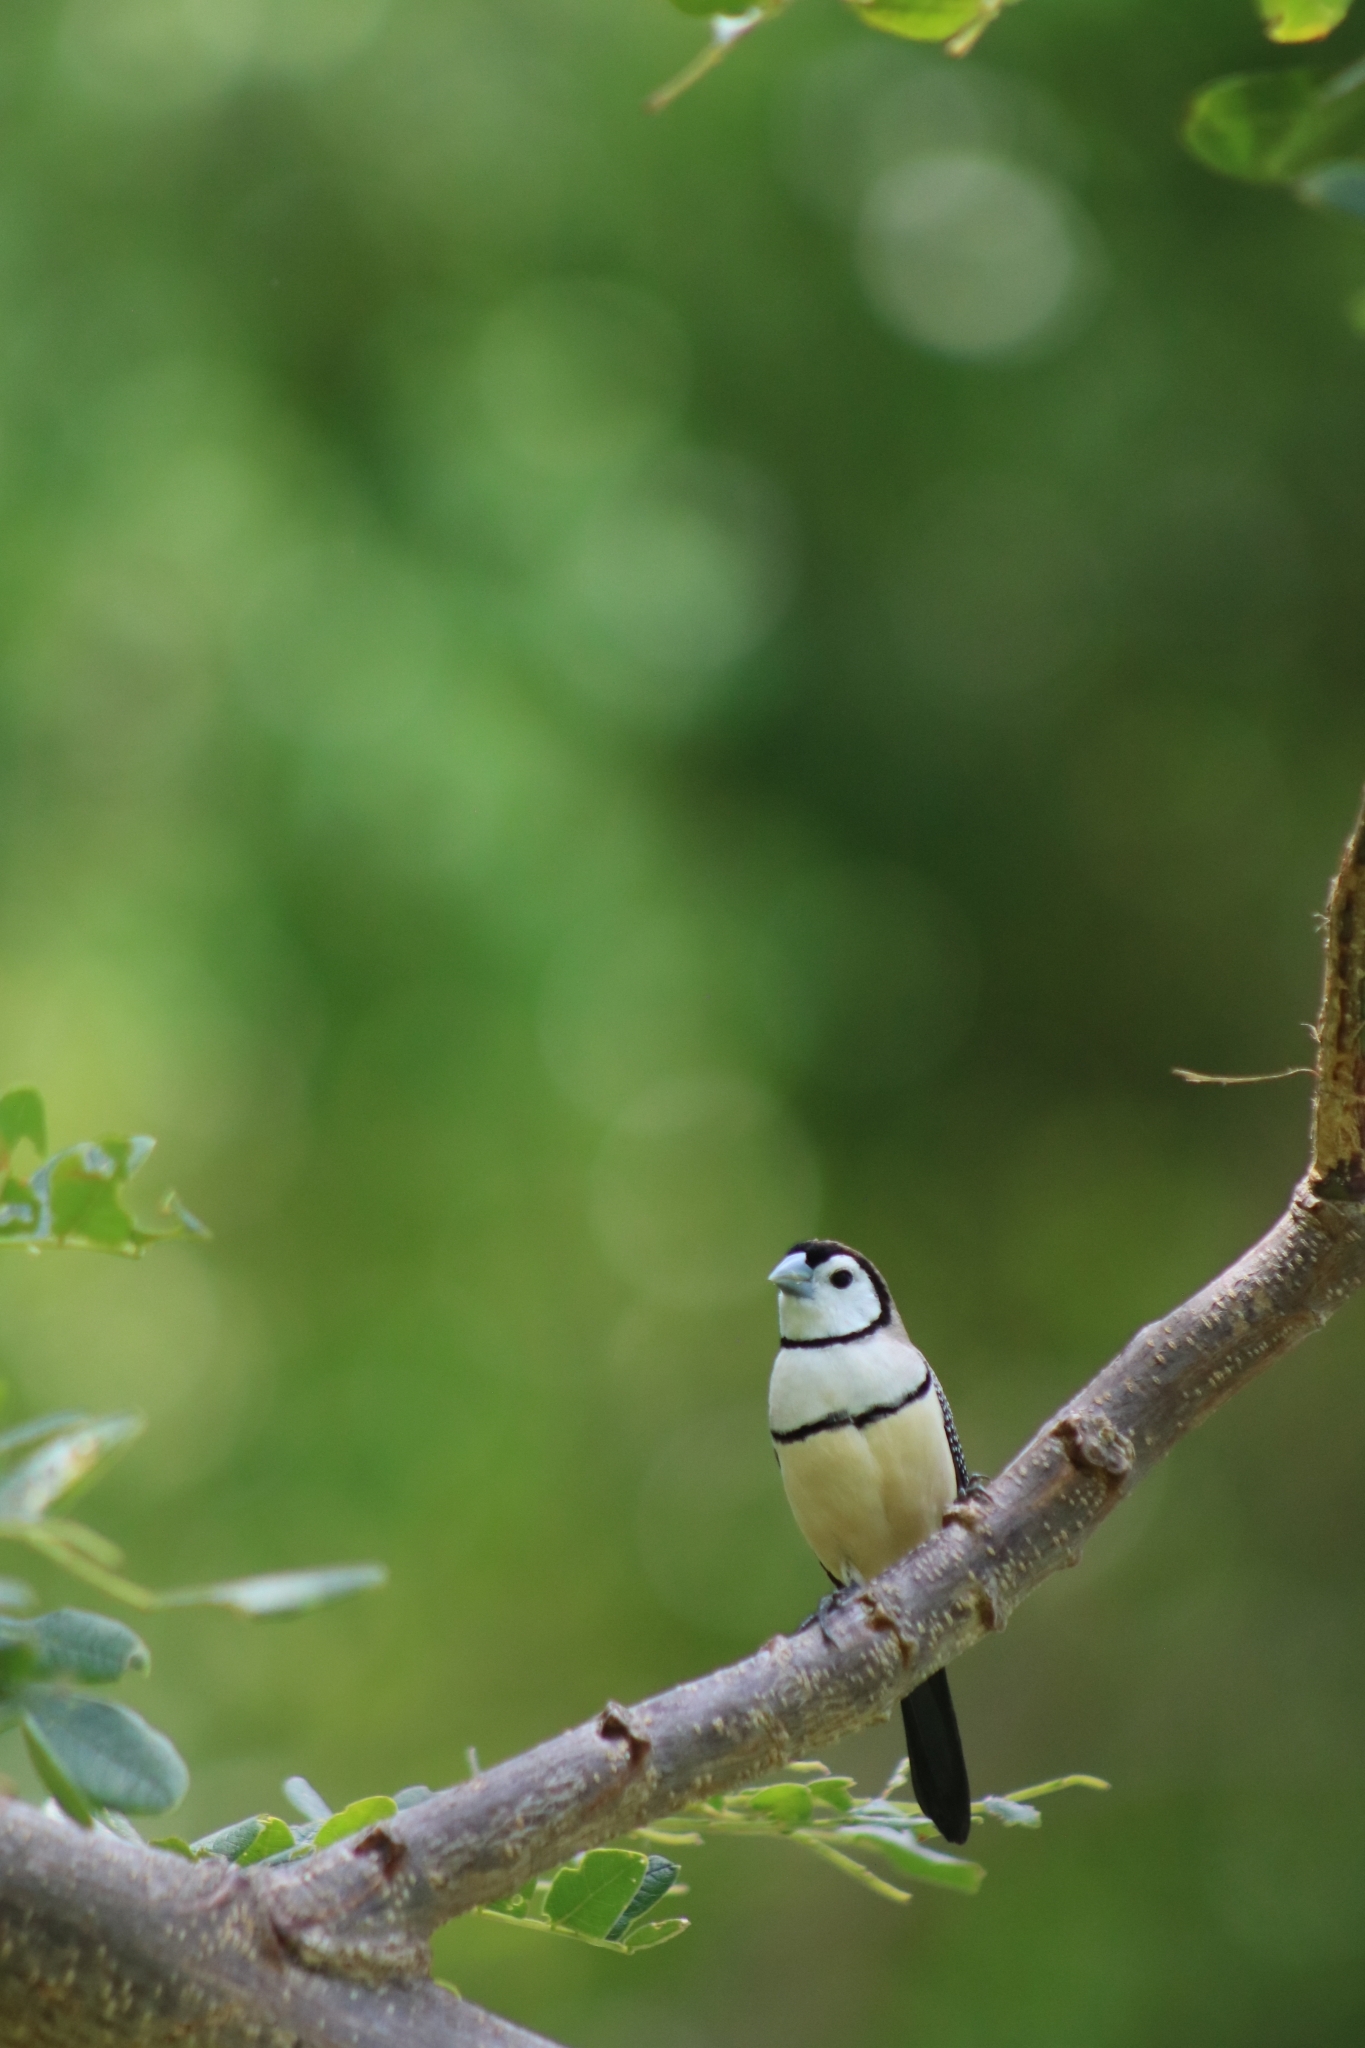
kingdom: Animalia
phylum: Chordata
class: Aves
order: Passeriformes
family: Estrildidae
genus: Taeniopygia
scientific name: Taeniopygia bichenovii
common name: Double-barred finch
